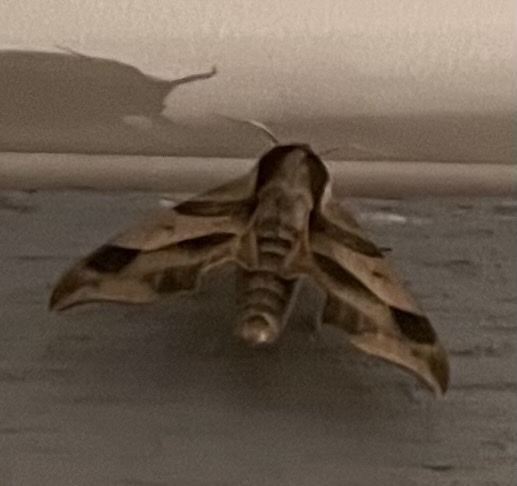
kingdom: Animalia
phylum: Arthropoda
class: Insecta
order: Lepidoptera
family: Sphingidae
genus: Darapsa
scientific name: Darapsa myron
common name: Hog sphinx
